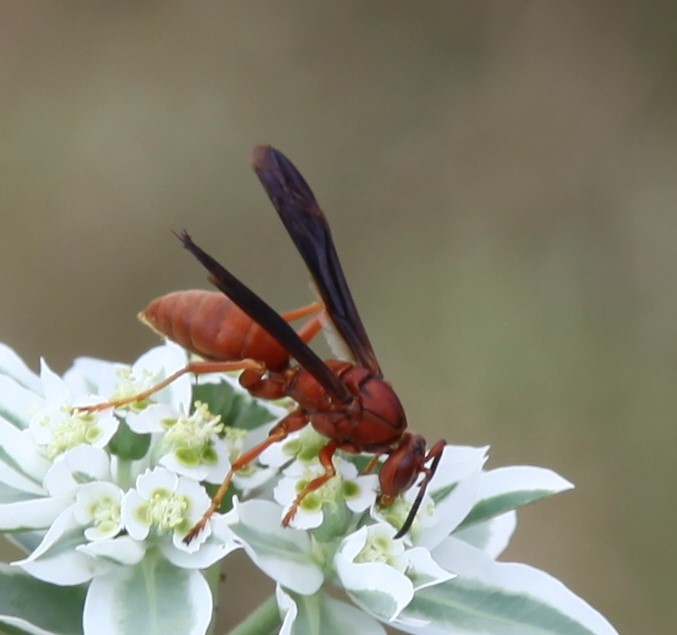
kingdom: Animalia
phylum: Arthropoda
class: Insecta
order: Hymenoptera
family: Eumenidae
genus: Polistes
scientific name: Polistes carolina
